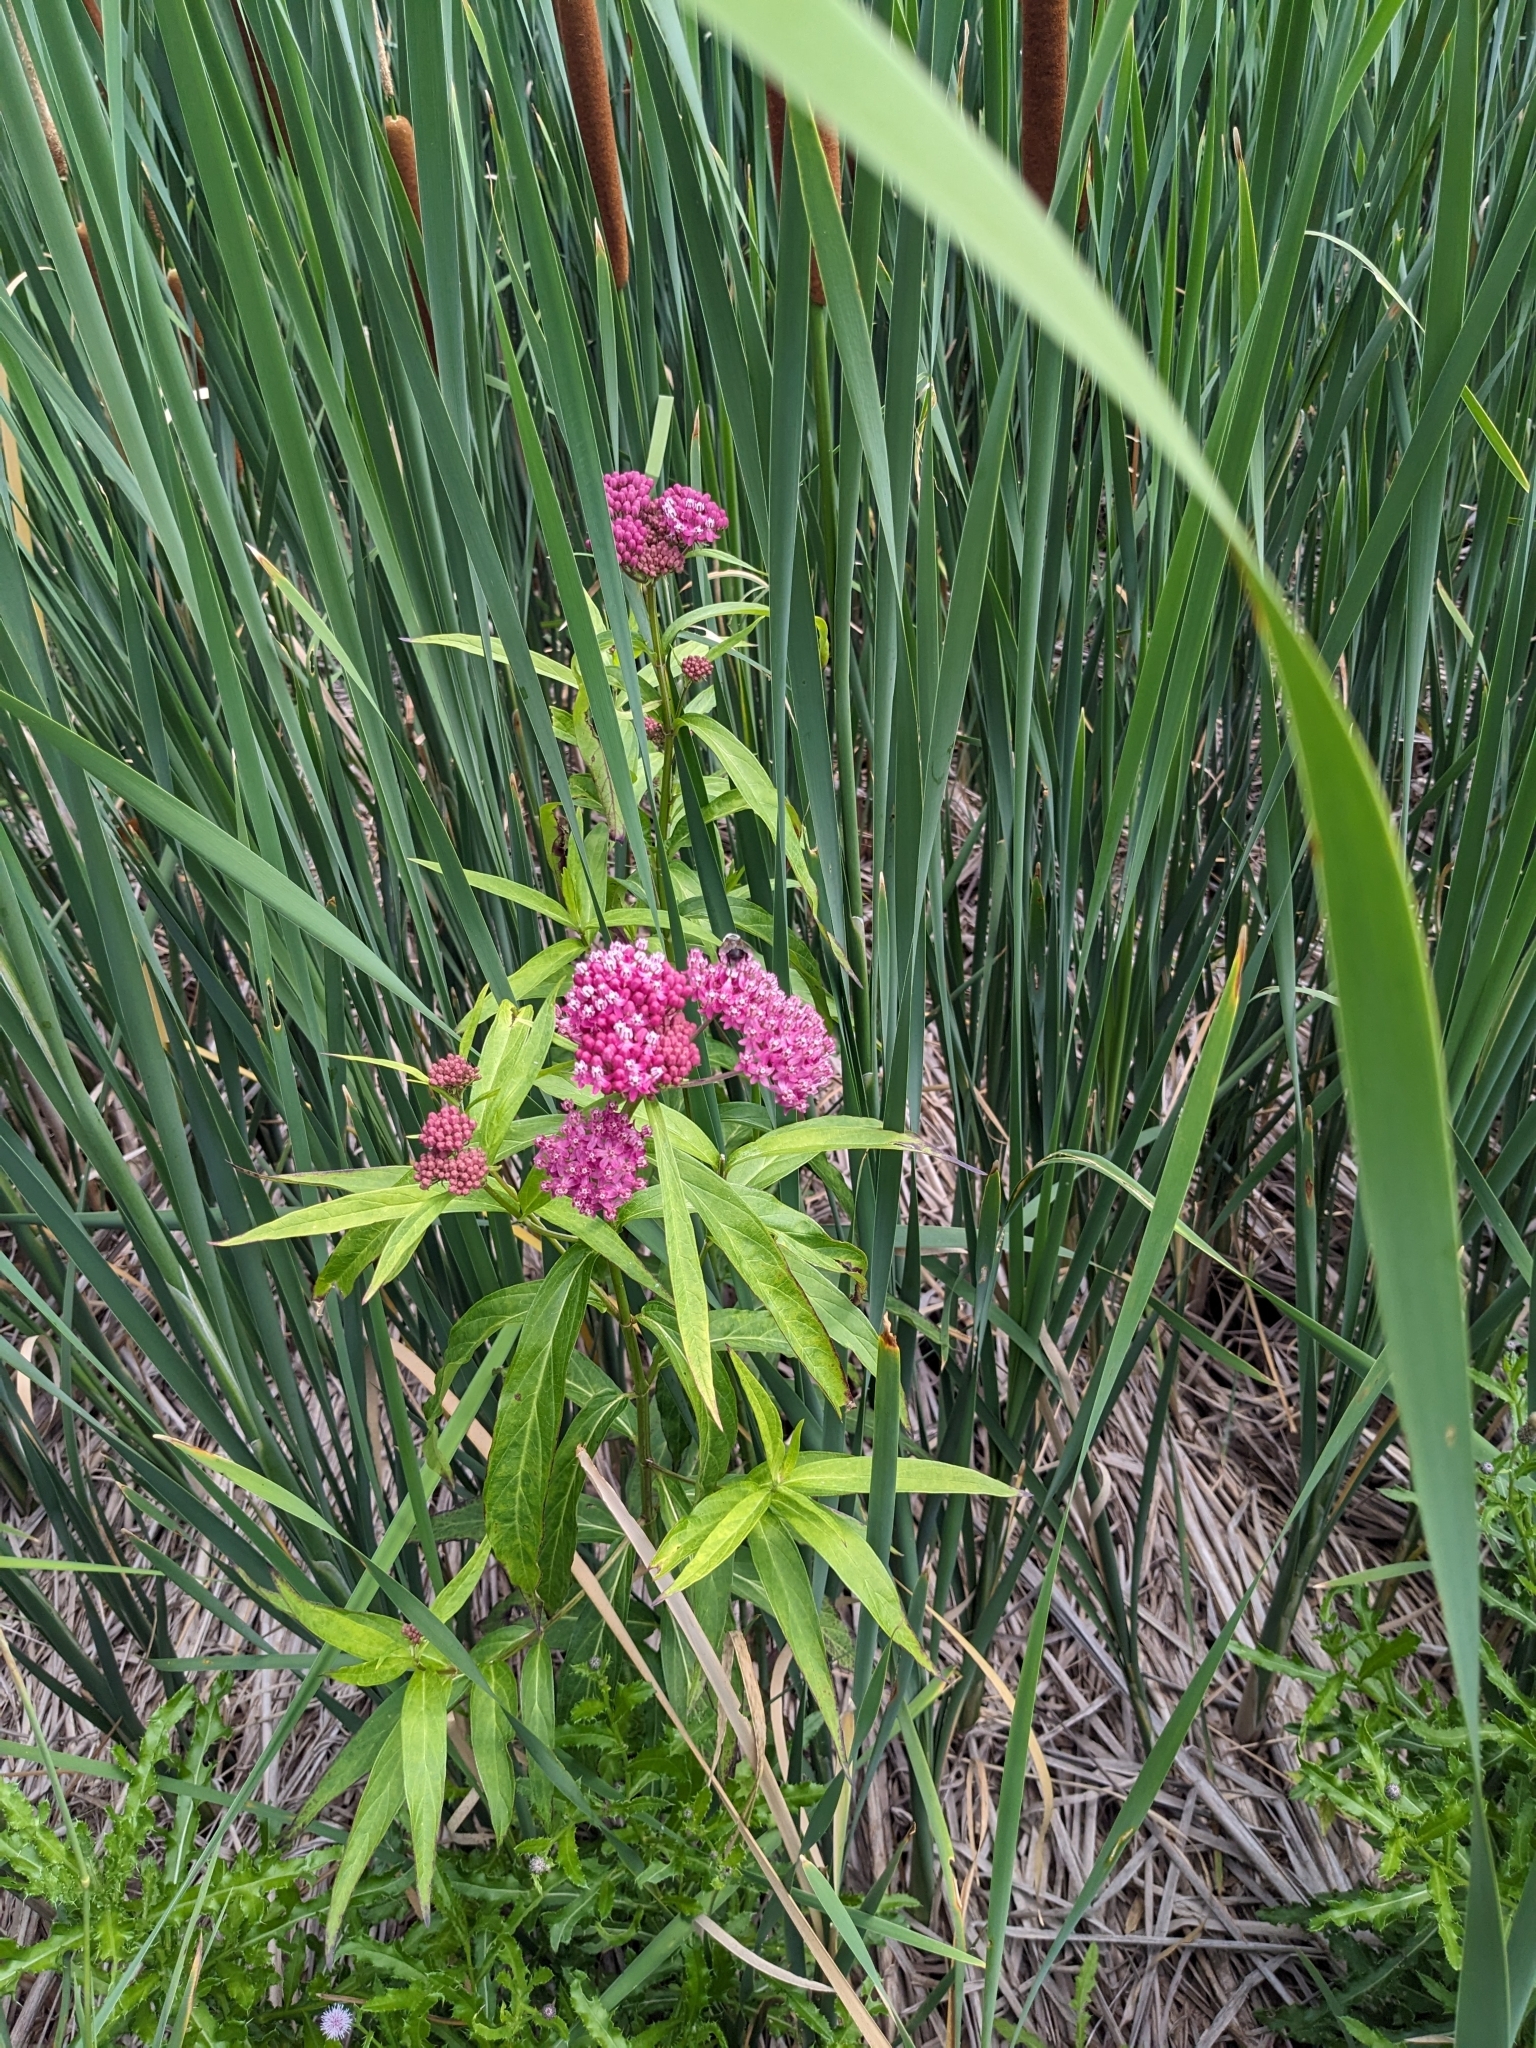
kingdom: Animalia
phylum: Arthropoda
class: Insecta
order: Hymenoptera
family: Apidae
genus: Bombus
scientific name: Bombus griseocollis
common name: Brown-belted bumble bee
